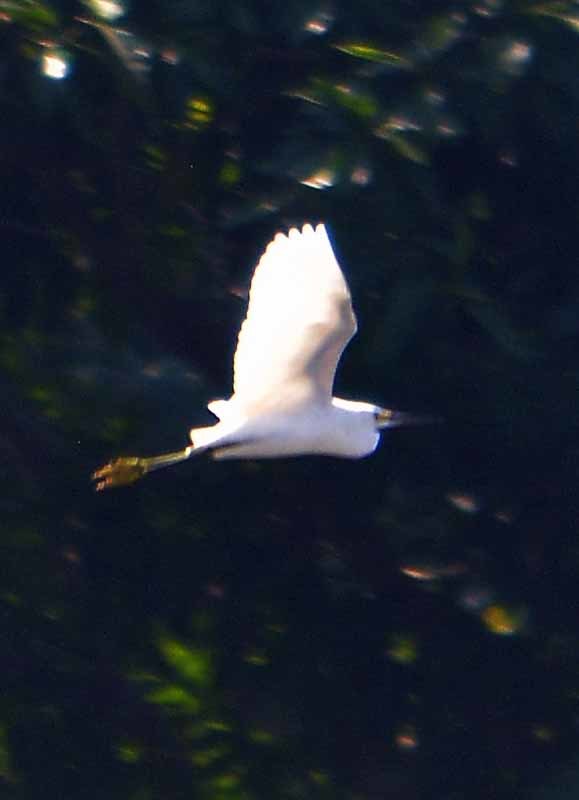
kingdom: Animalia
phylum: Chordata
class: Aves
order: Pelecaniformes
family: Ardeidae
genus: Egretta
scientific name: Egretta thula
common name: Snowy egret
